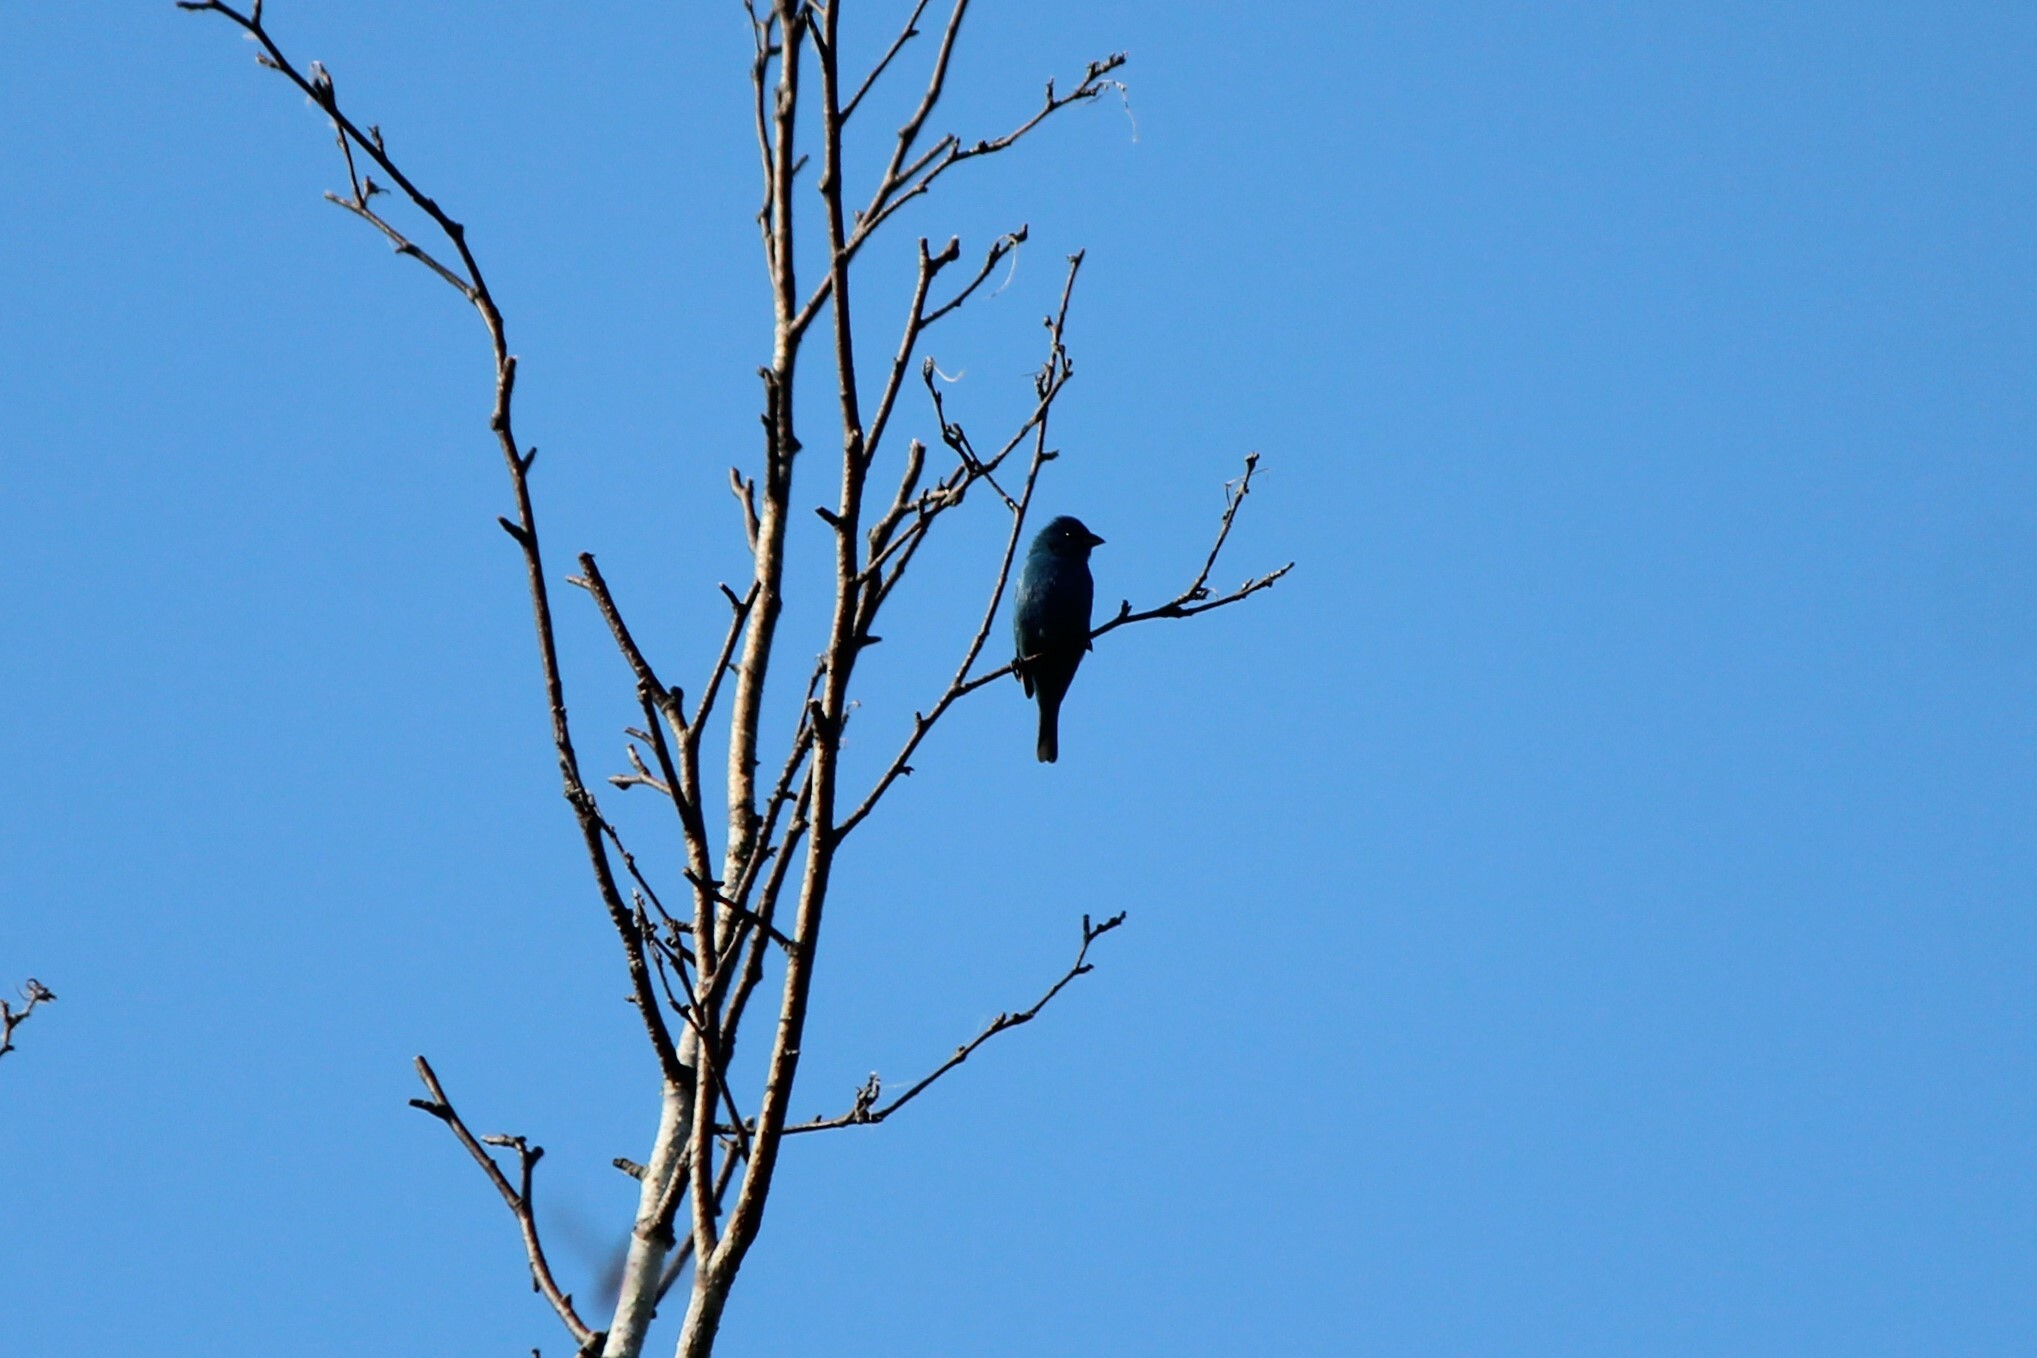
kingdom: Animalia
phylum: Chordata
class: Aves
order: Passeriformes
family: Cardinalidae
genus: Passerina
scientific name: Passerina cyanea
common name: Indigo bunting
